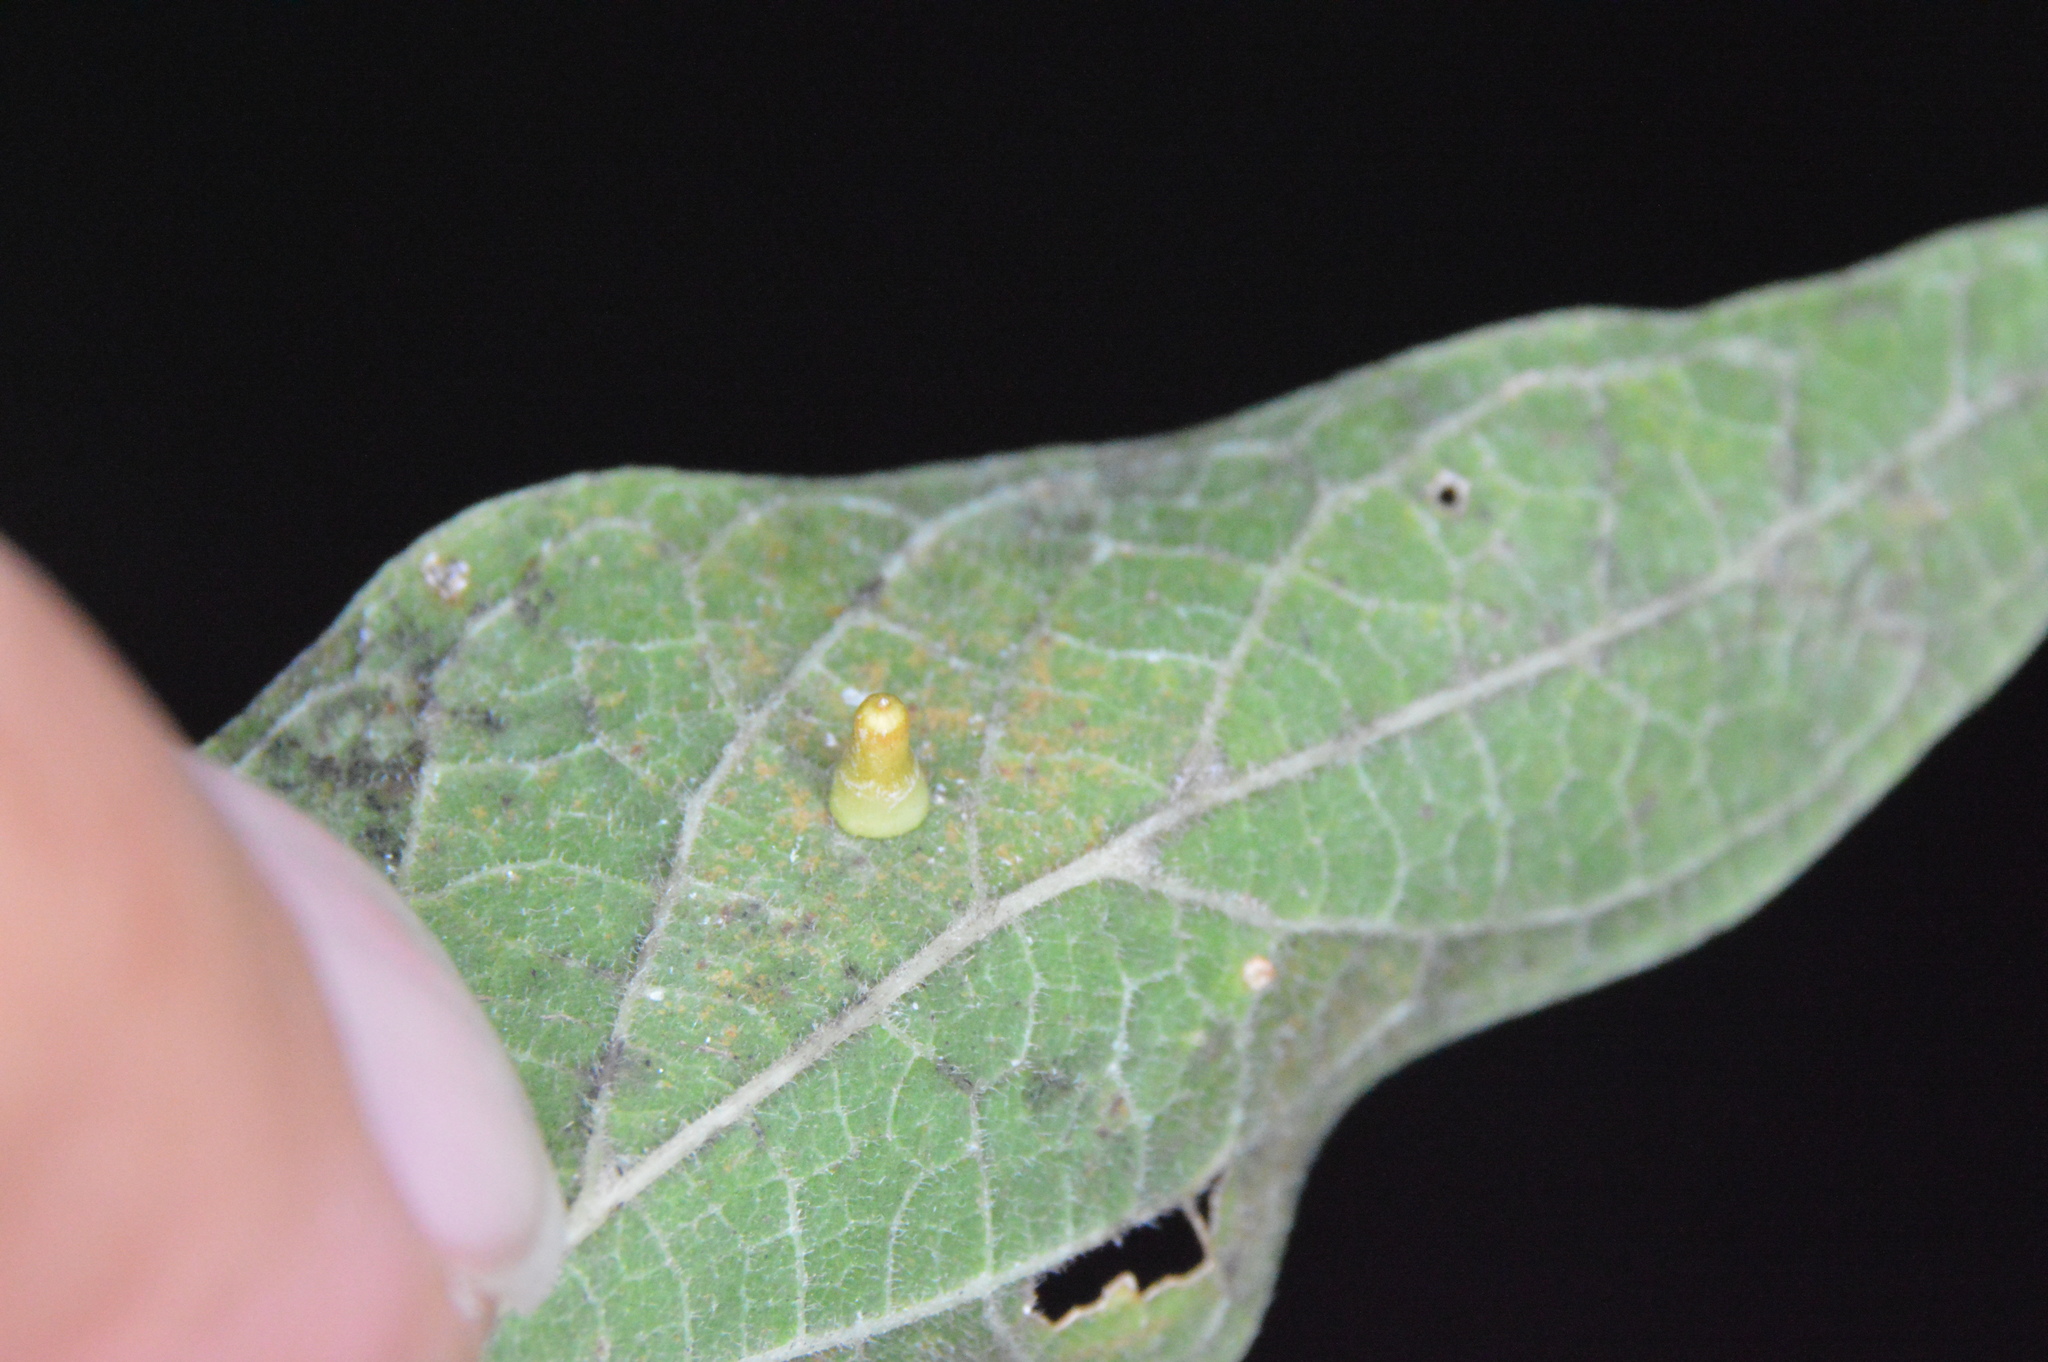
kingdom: Animalia
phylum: Arthropoda
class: Insecta
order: Diptera
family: Cecidomyiidae
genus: Celticecis
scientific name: Celticecis aciculata
